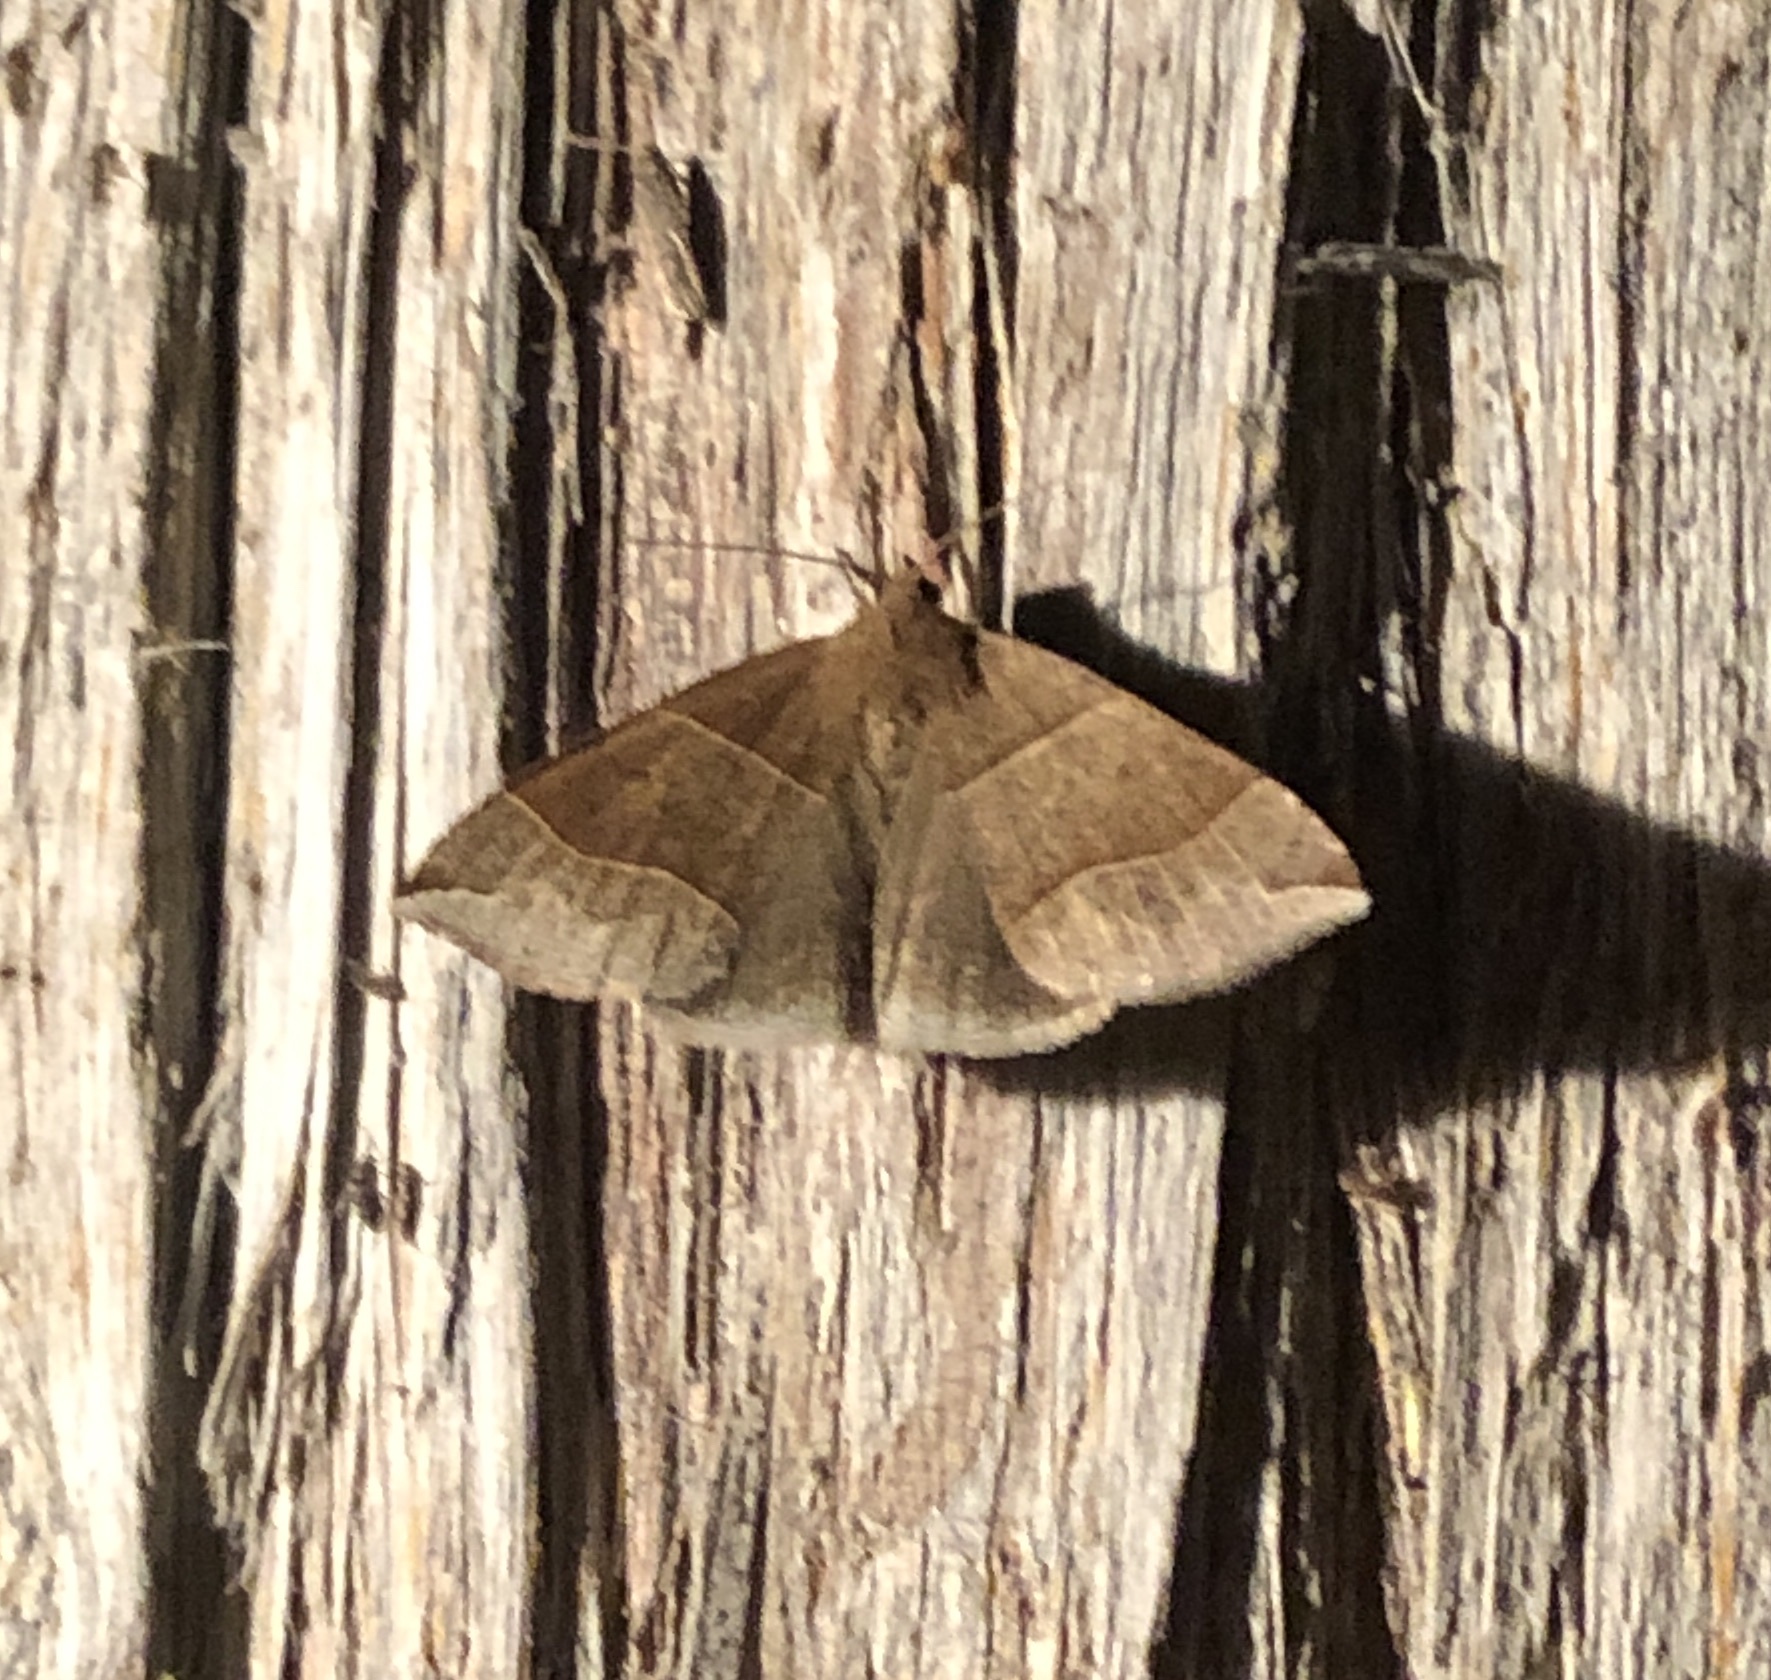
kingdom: Animalia
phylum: Arthropoda
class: Insecta
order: Lepidoptera
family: Erebidae
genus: Parallelia
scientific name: Parallelia bistriaris
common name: Maple looper moth
